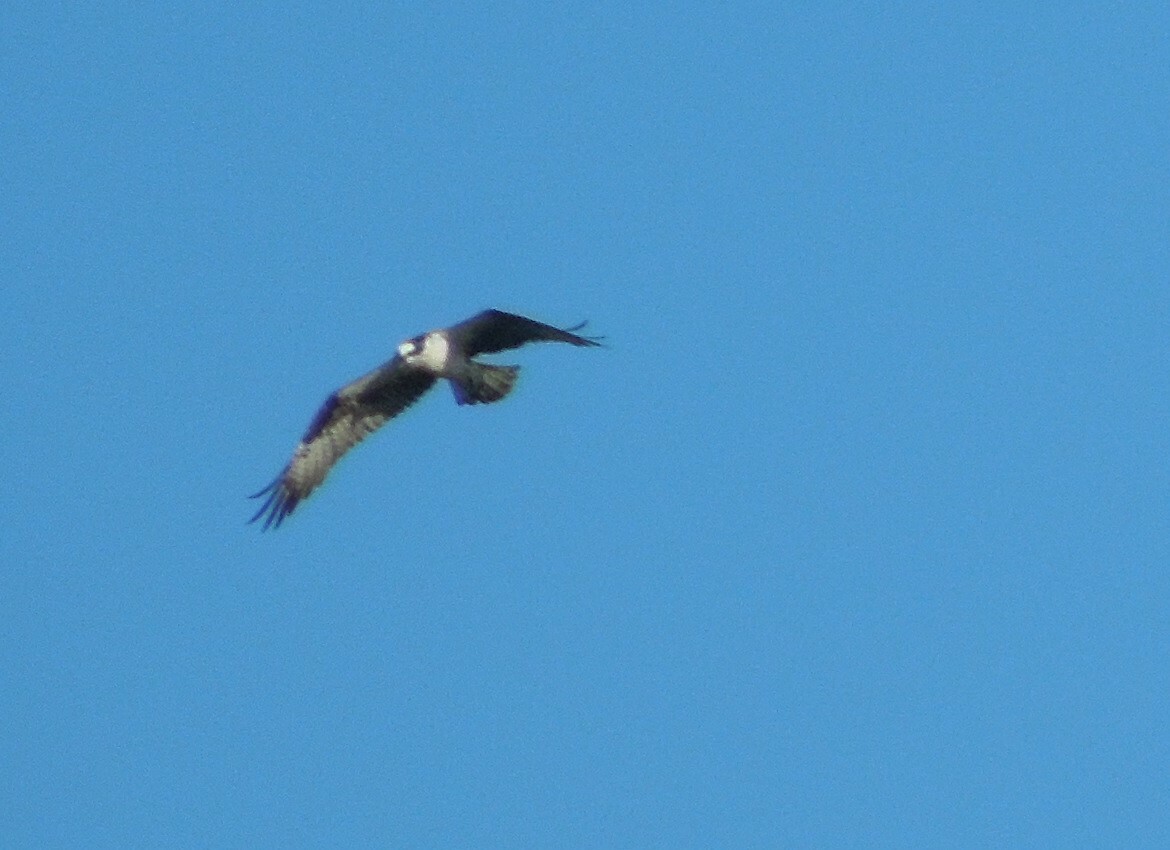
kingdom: Animalia
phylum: Chordata
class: Aves
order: Accipitriformes
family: Pandionidae
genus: Pandion
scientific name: Pandion haliaetus
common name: Osprey
